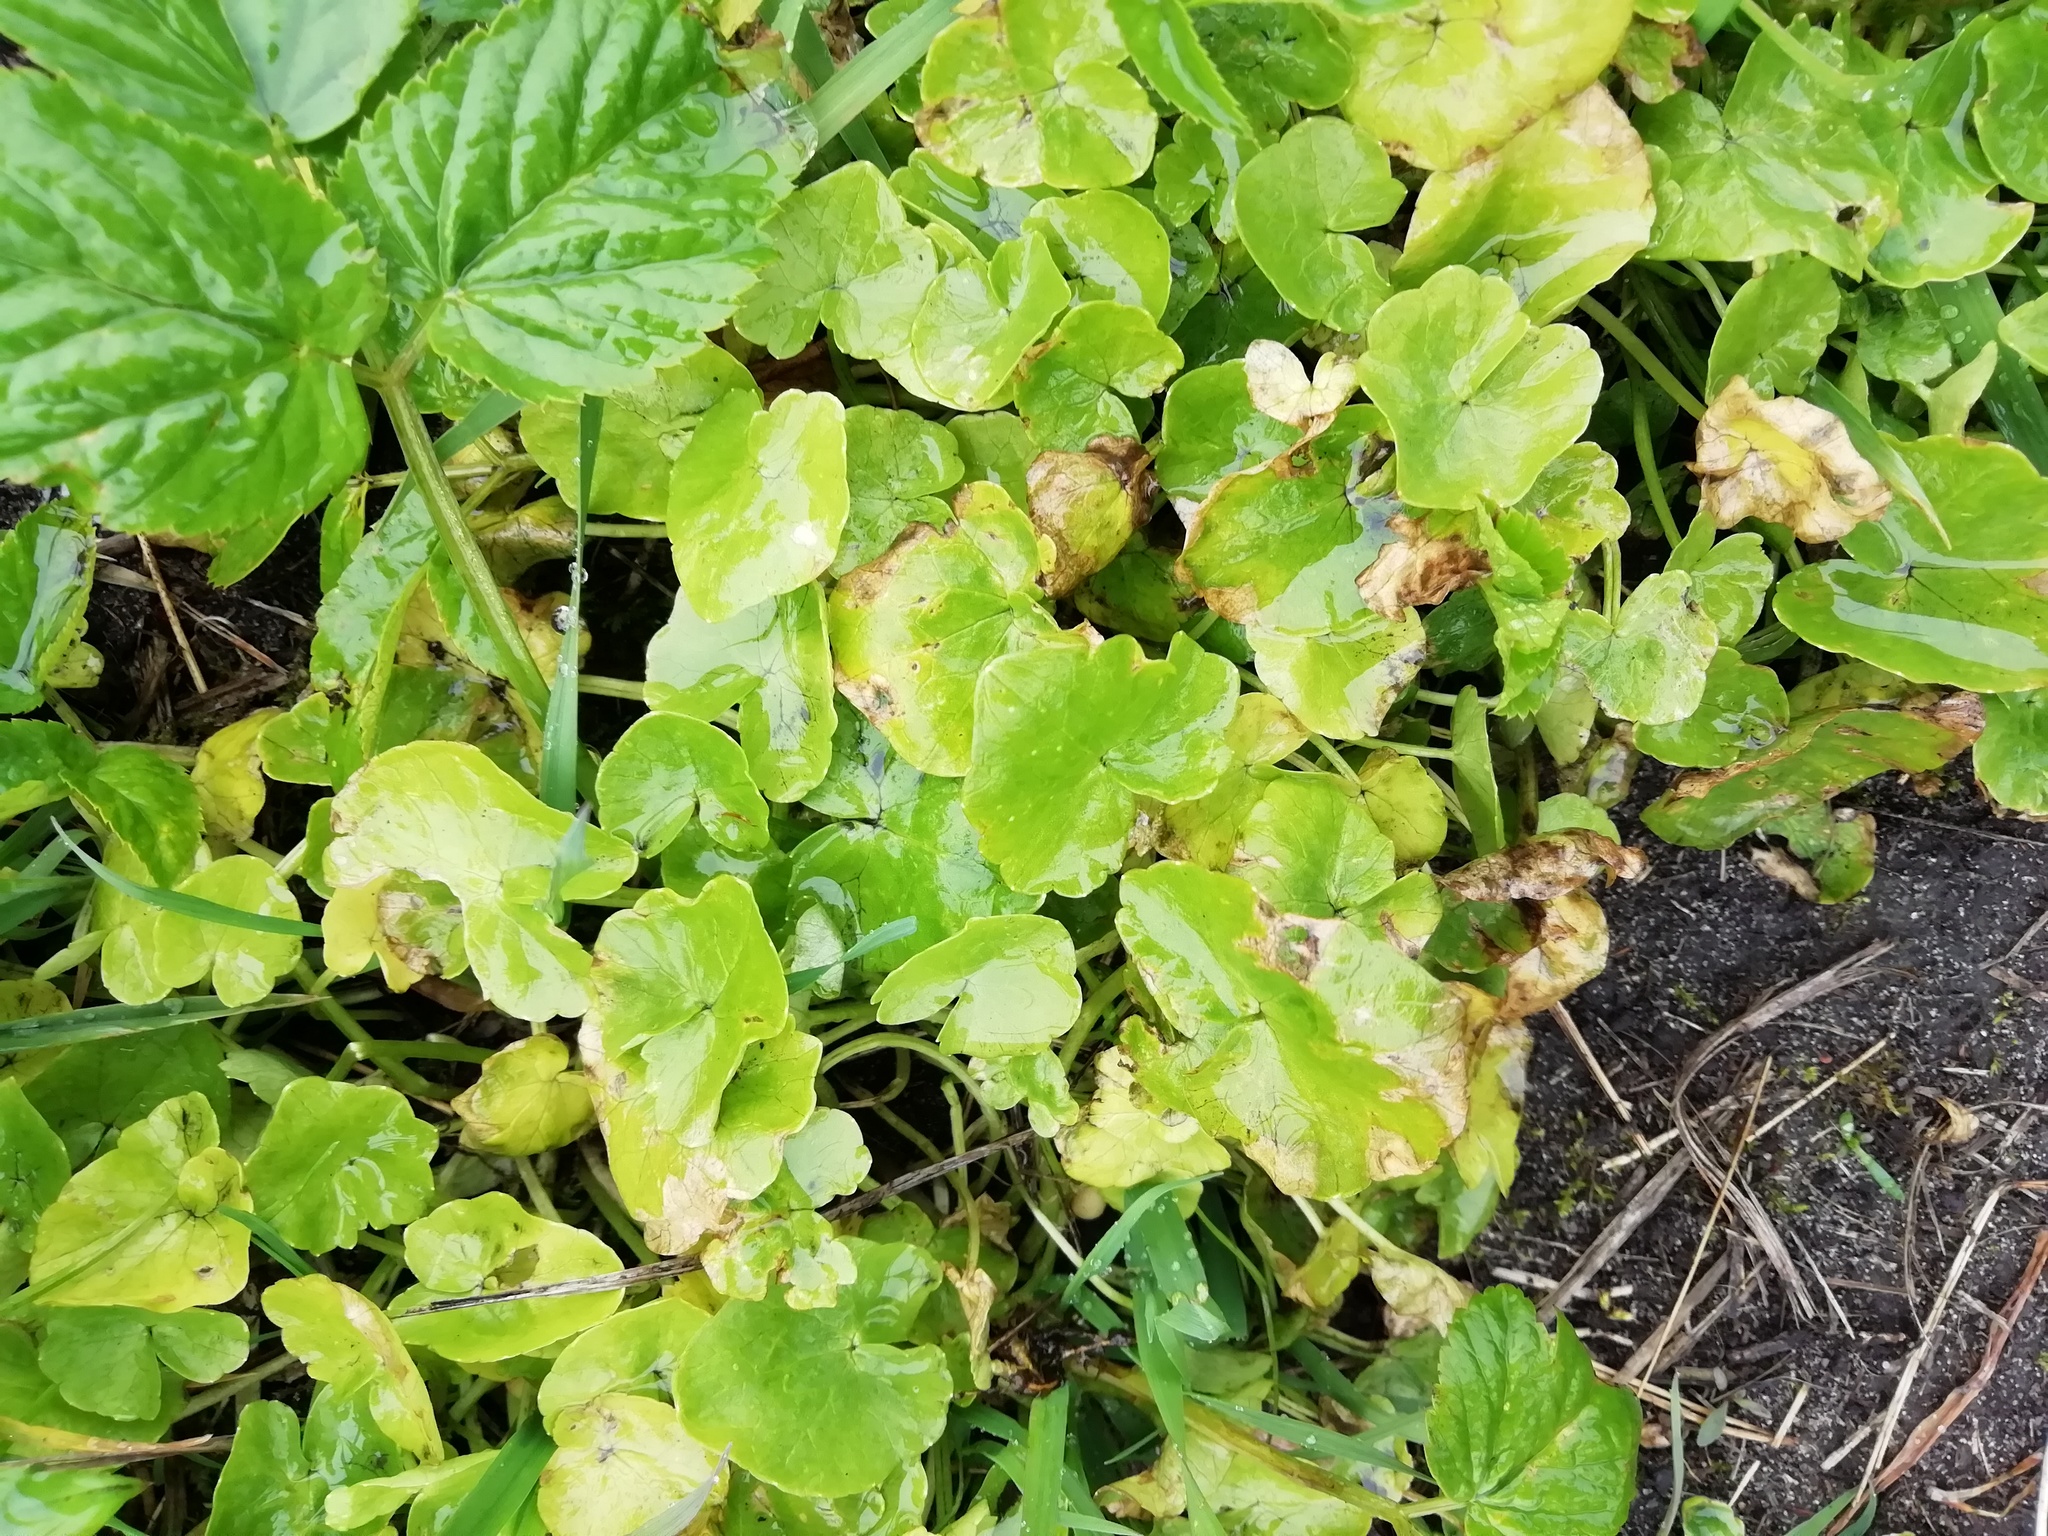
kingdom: Plantae
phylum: Tracheophyta
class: Magnoliopsida
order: Ranunculales
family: Ranunculaceae
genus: Ficaria
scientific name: Ficaria verna
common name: Lesser celandine
